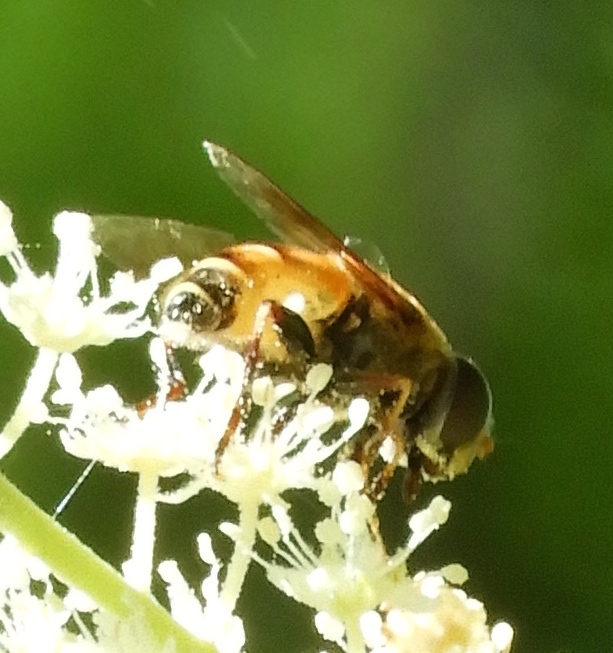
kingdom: Animalia
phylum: Arthropoda
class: Insecta
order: Diptera
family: Syrphidae
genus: Palpada
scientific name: Palpada
